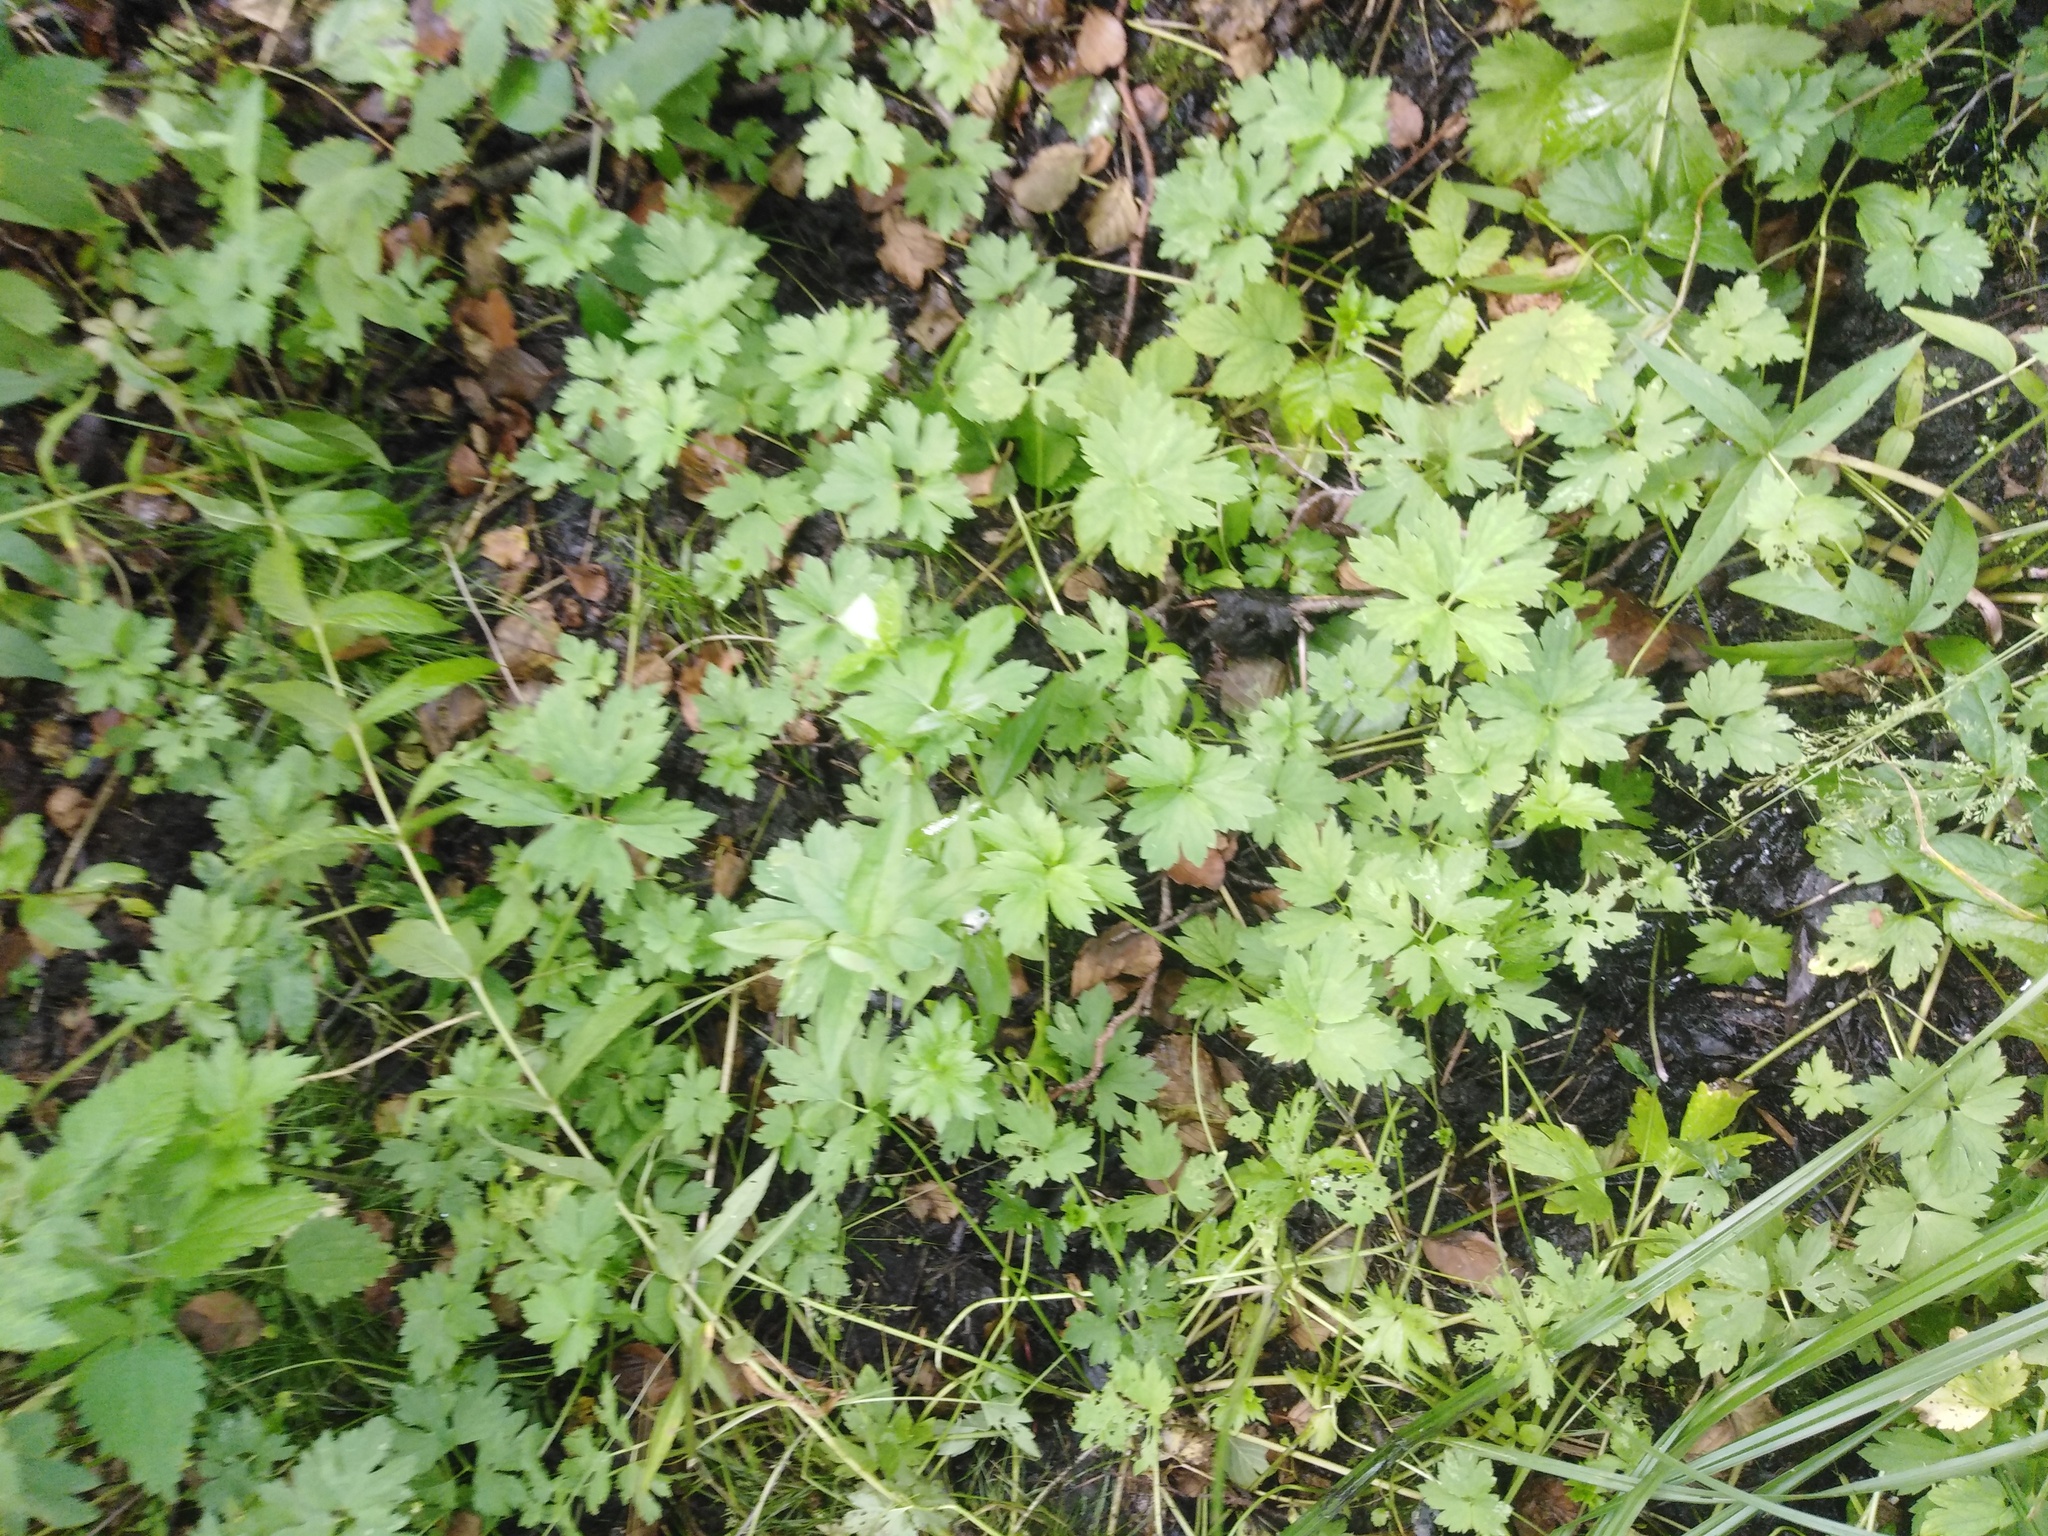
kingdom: Plantae
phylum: Tracheophyta
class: Magnoliopsida
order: Ranunculales
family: Ranunculaceae
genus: Ranunculus
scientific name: Ranunculus repens
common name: Creeping buttercup
